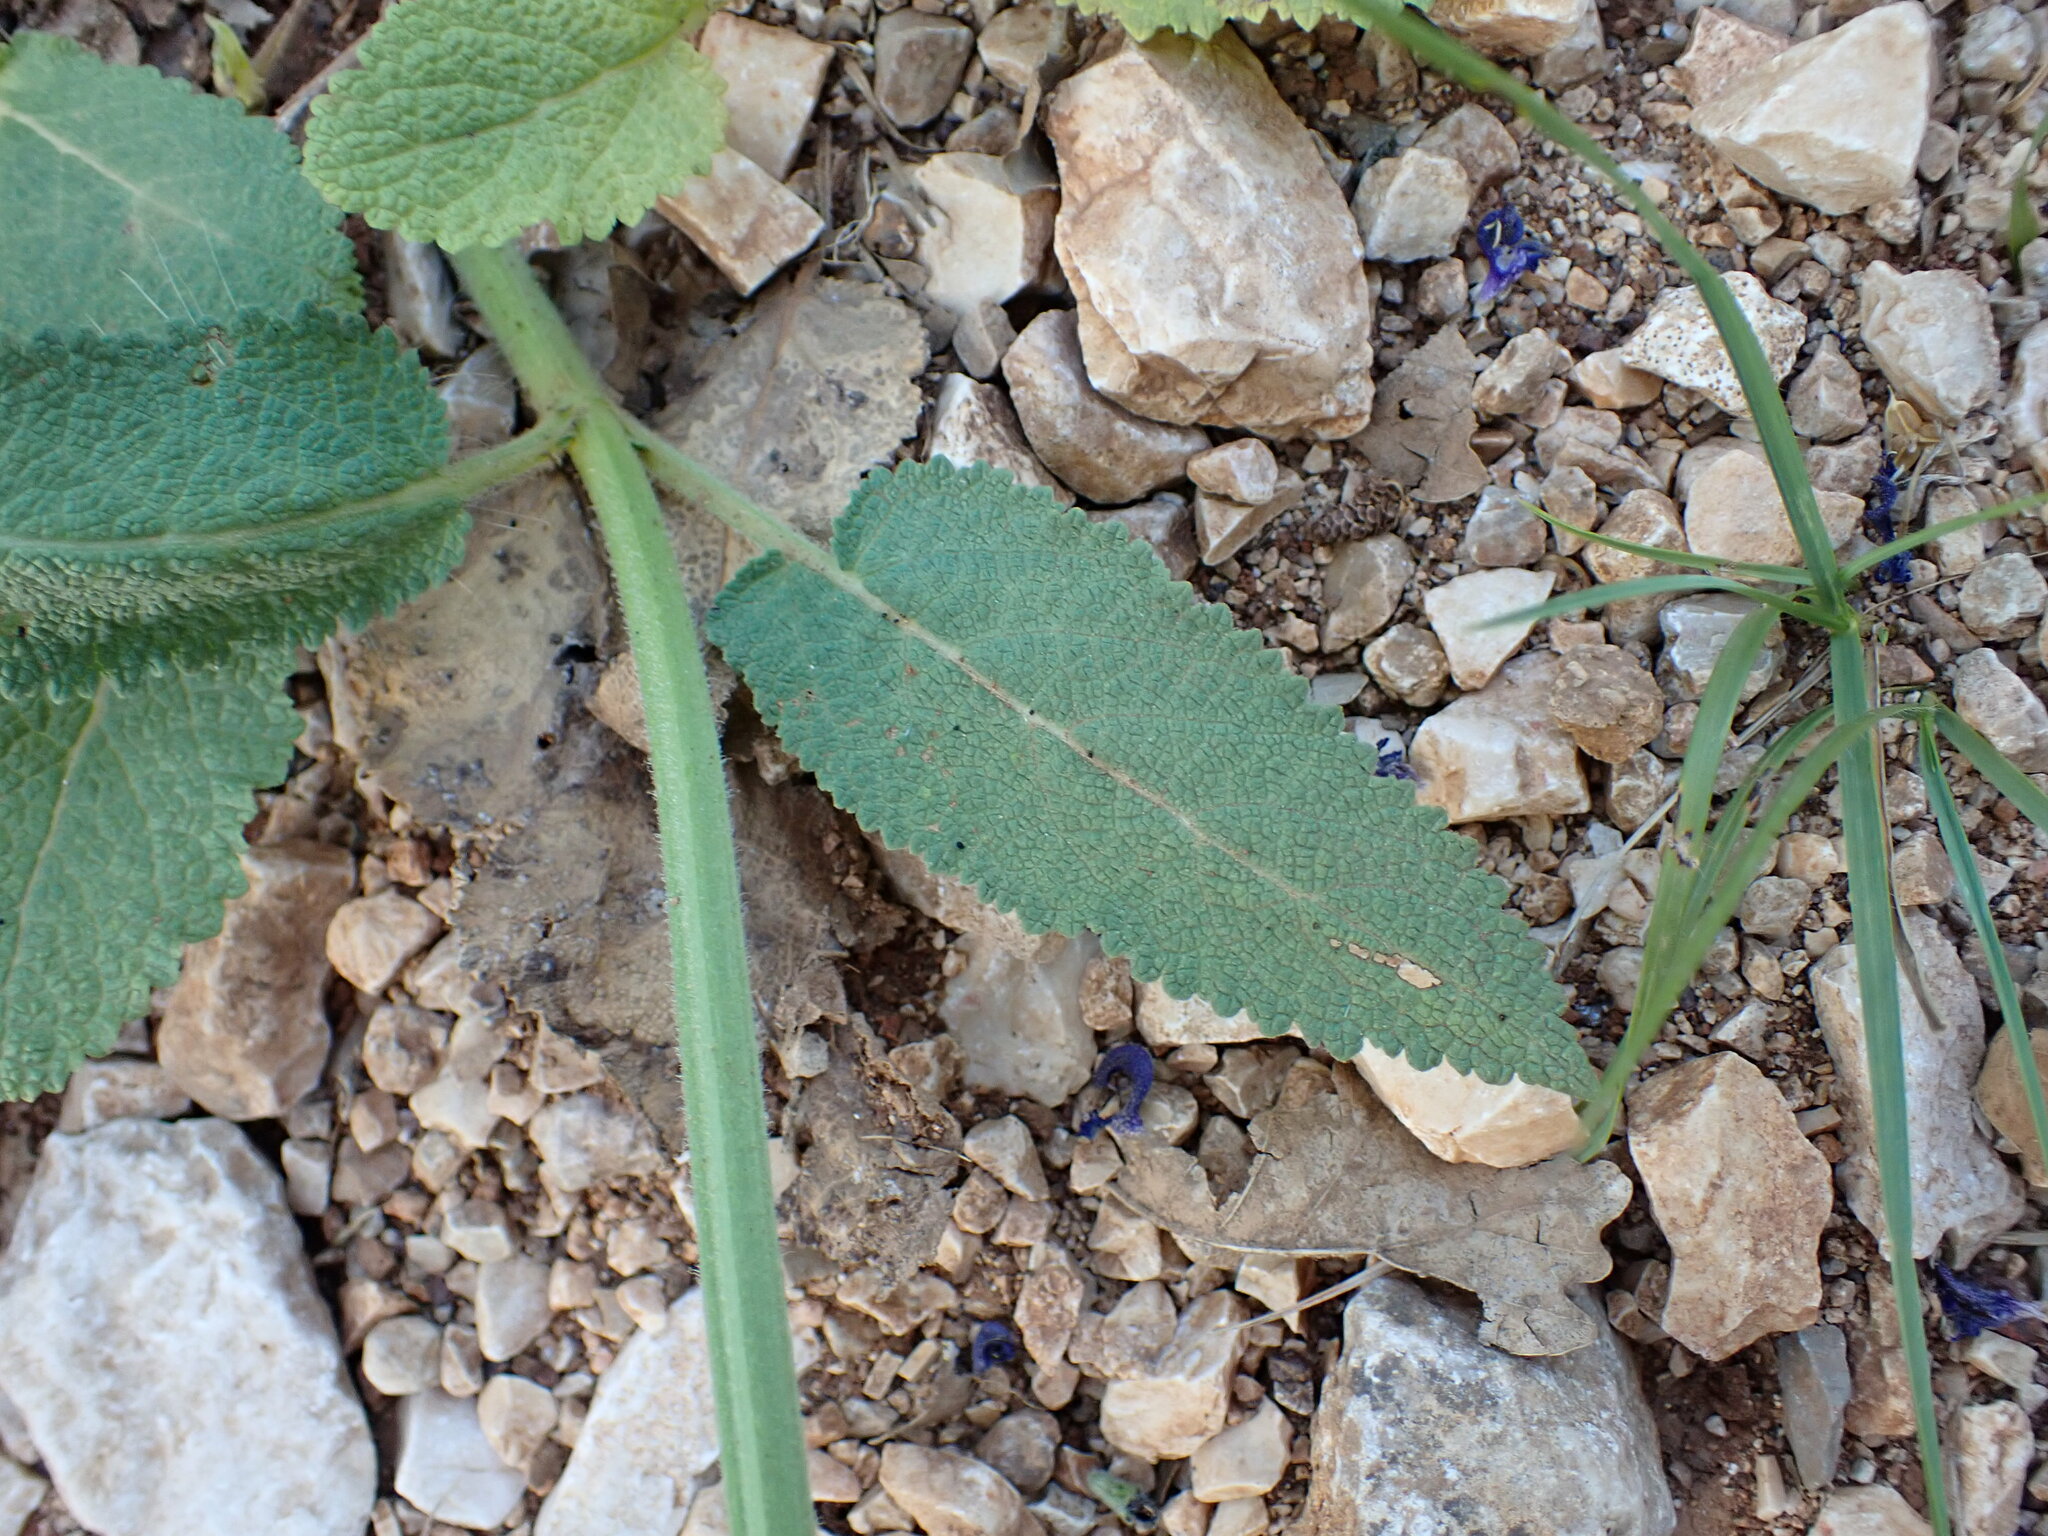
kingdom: Plantae
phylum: Tracheophyta
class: Magnoliopsida
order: Lamiales
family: Lamiaceae
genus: Salvia
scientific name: Salvia pratensis
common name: Meadow sage
